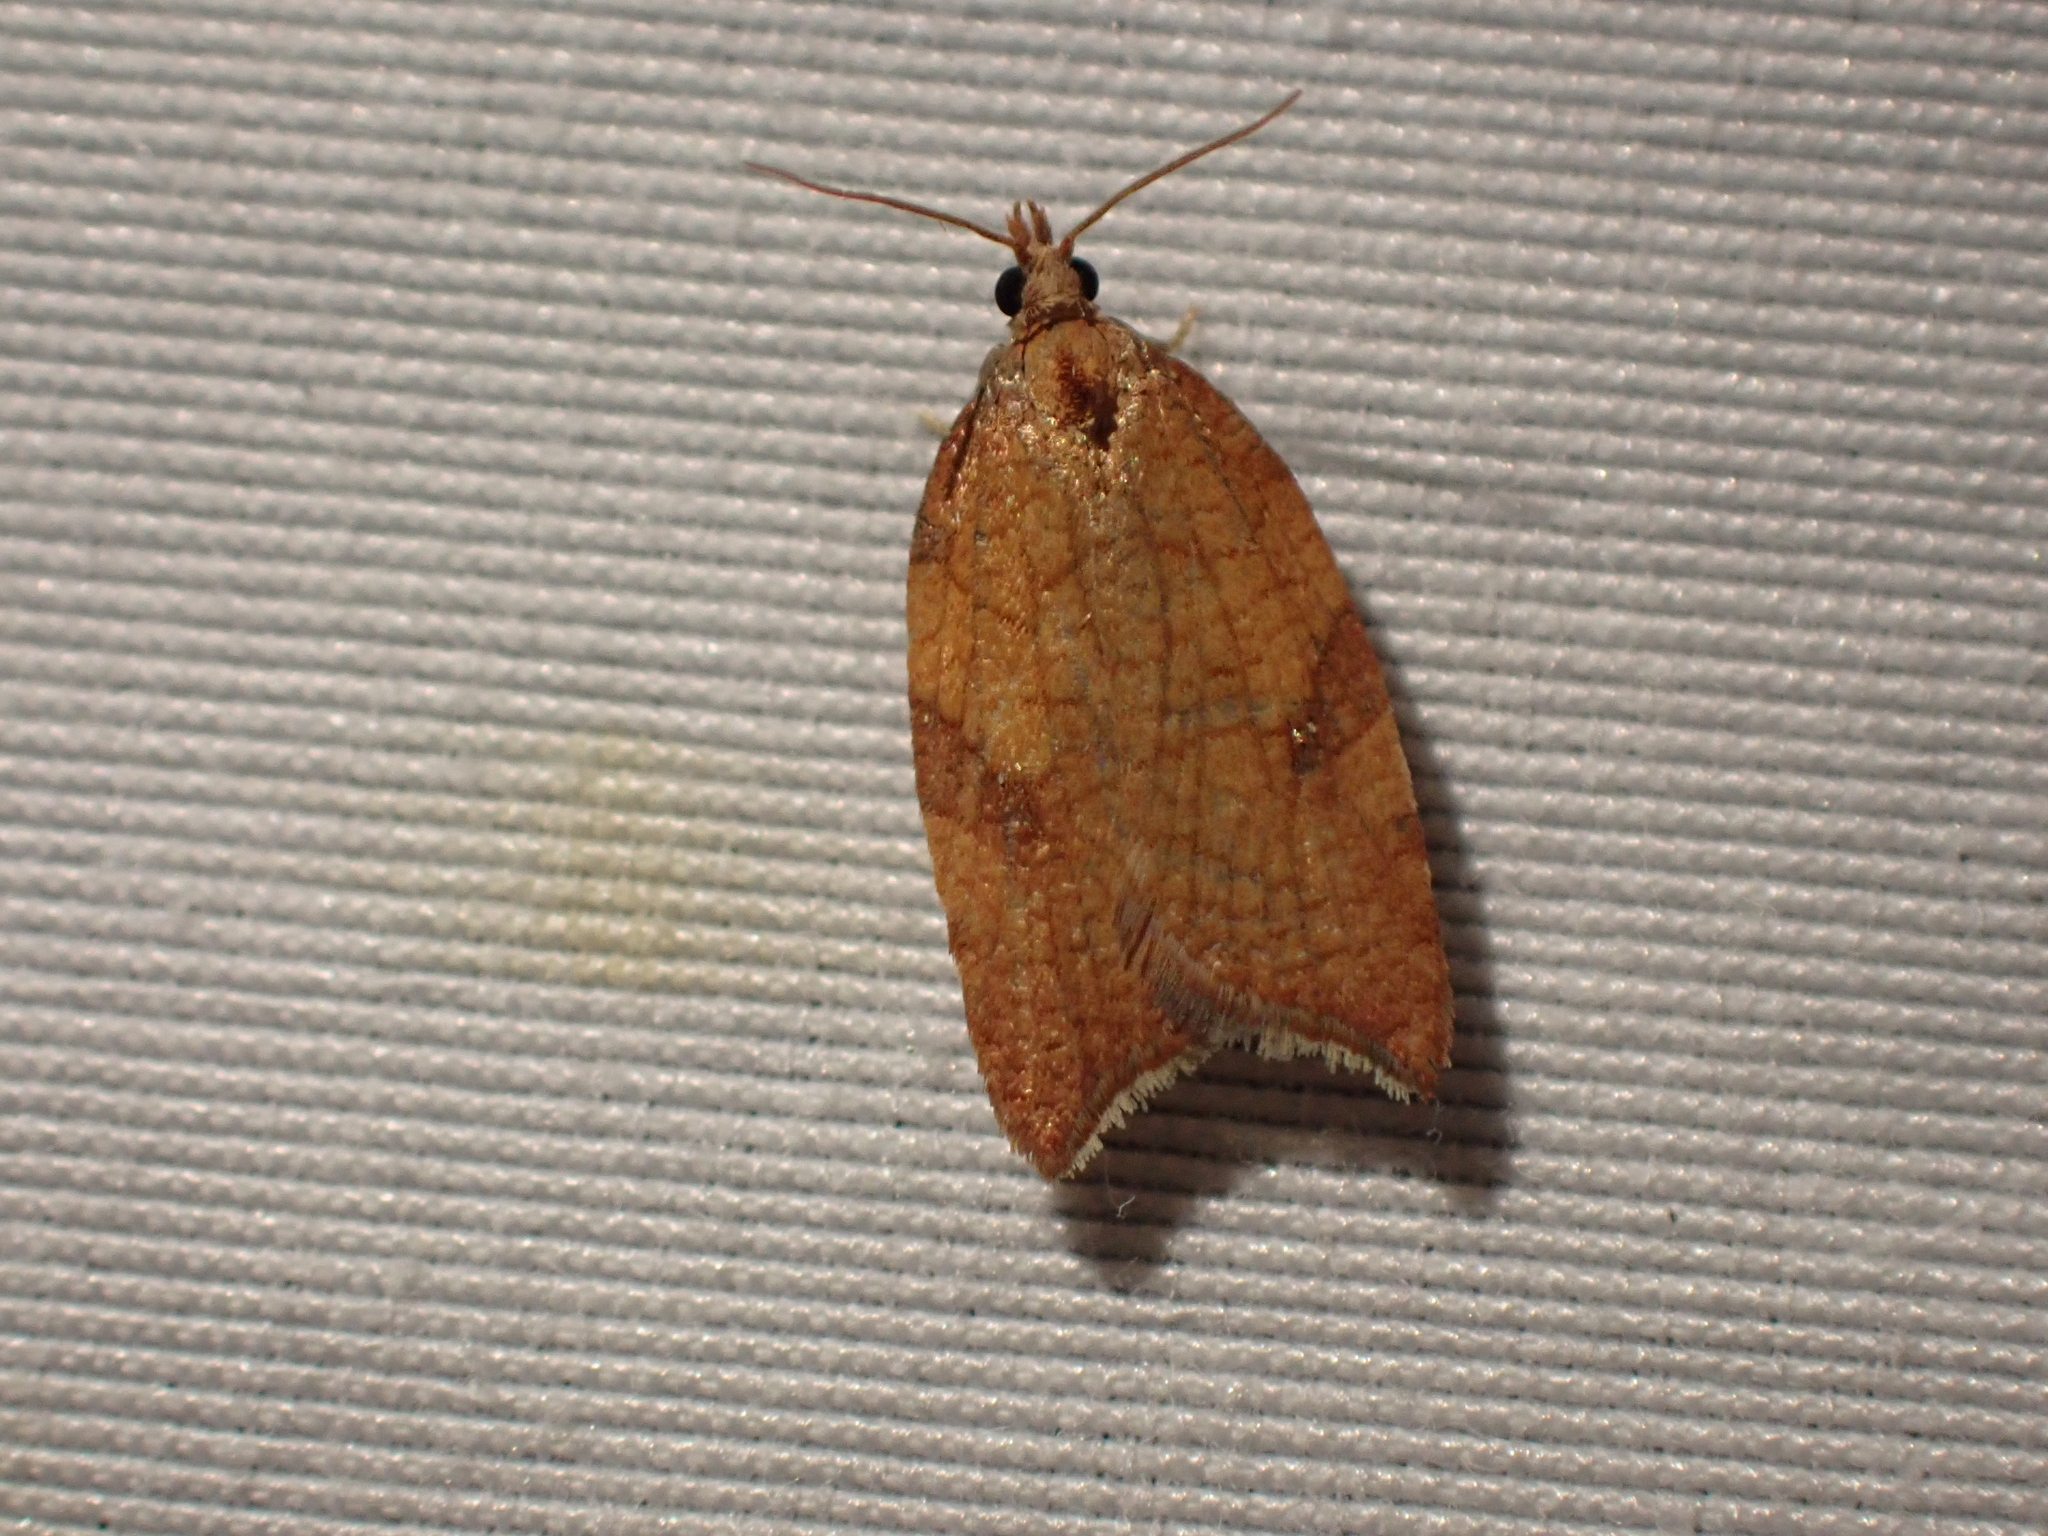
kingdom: Animalia
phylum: Arthropoda
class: Insecta
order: Lepidoptera
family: Tortricidae
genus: Acleris
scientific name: Acleris rhombana
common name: Tortricid moth
